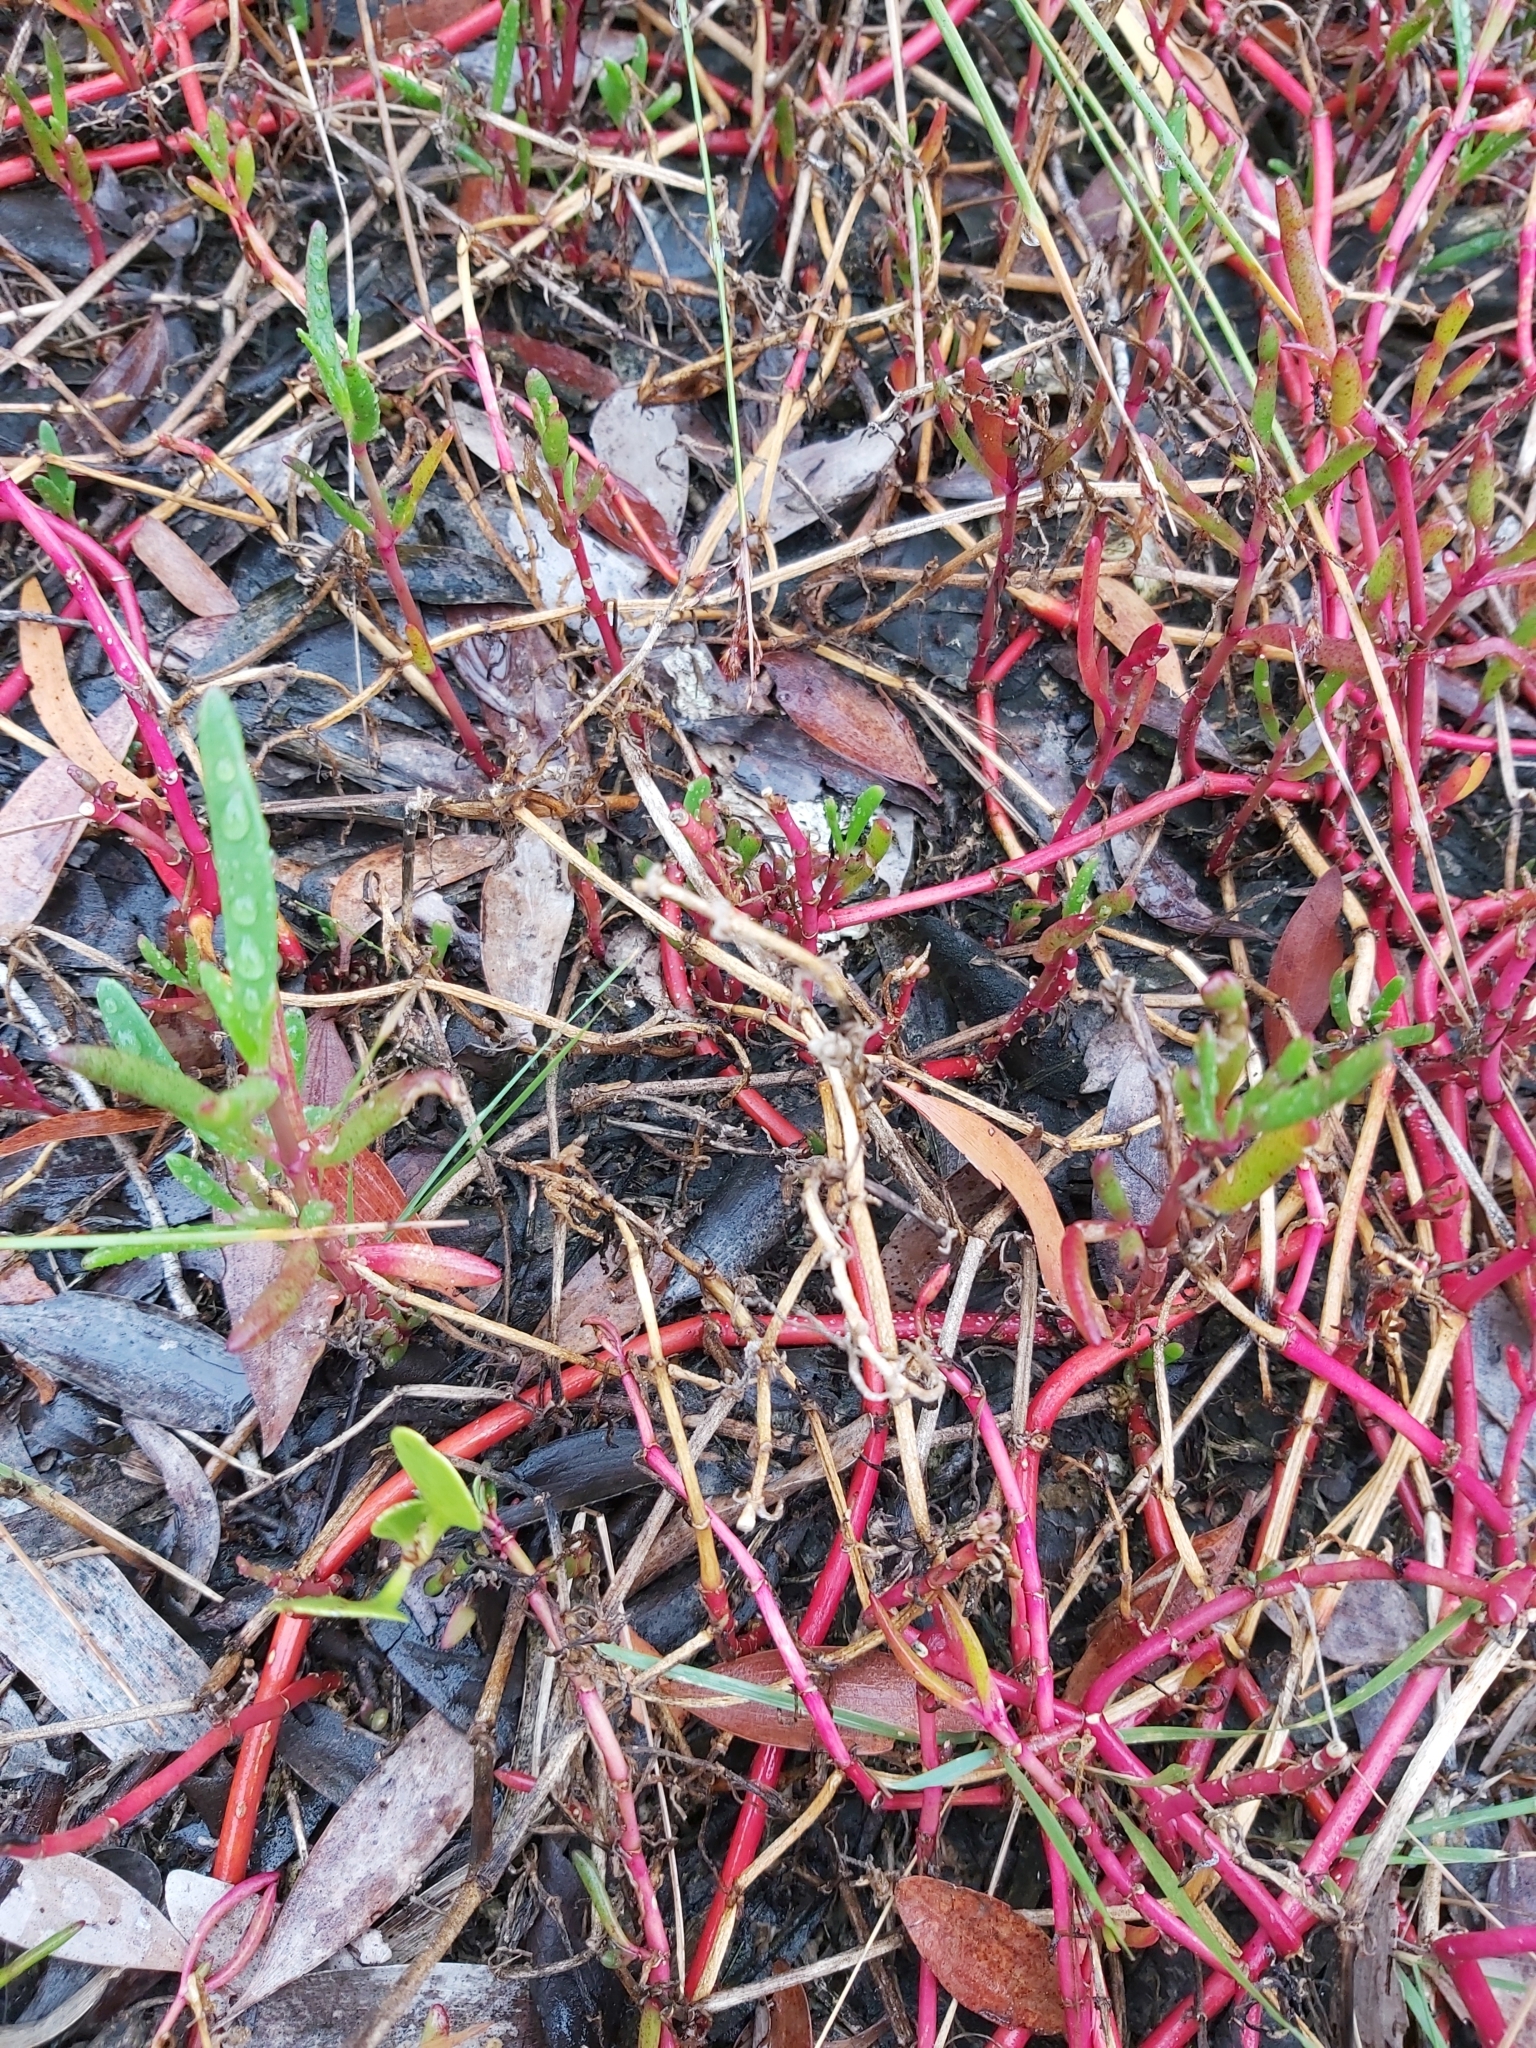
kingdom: Plantae
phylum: Tracheophyta
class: Magnoliopsida
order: Caryophyllales
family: Aizoaceae
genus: Sesuvium
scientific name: Sesuvium portulacastrum
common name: Sea-purslane
